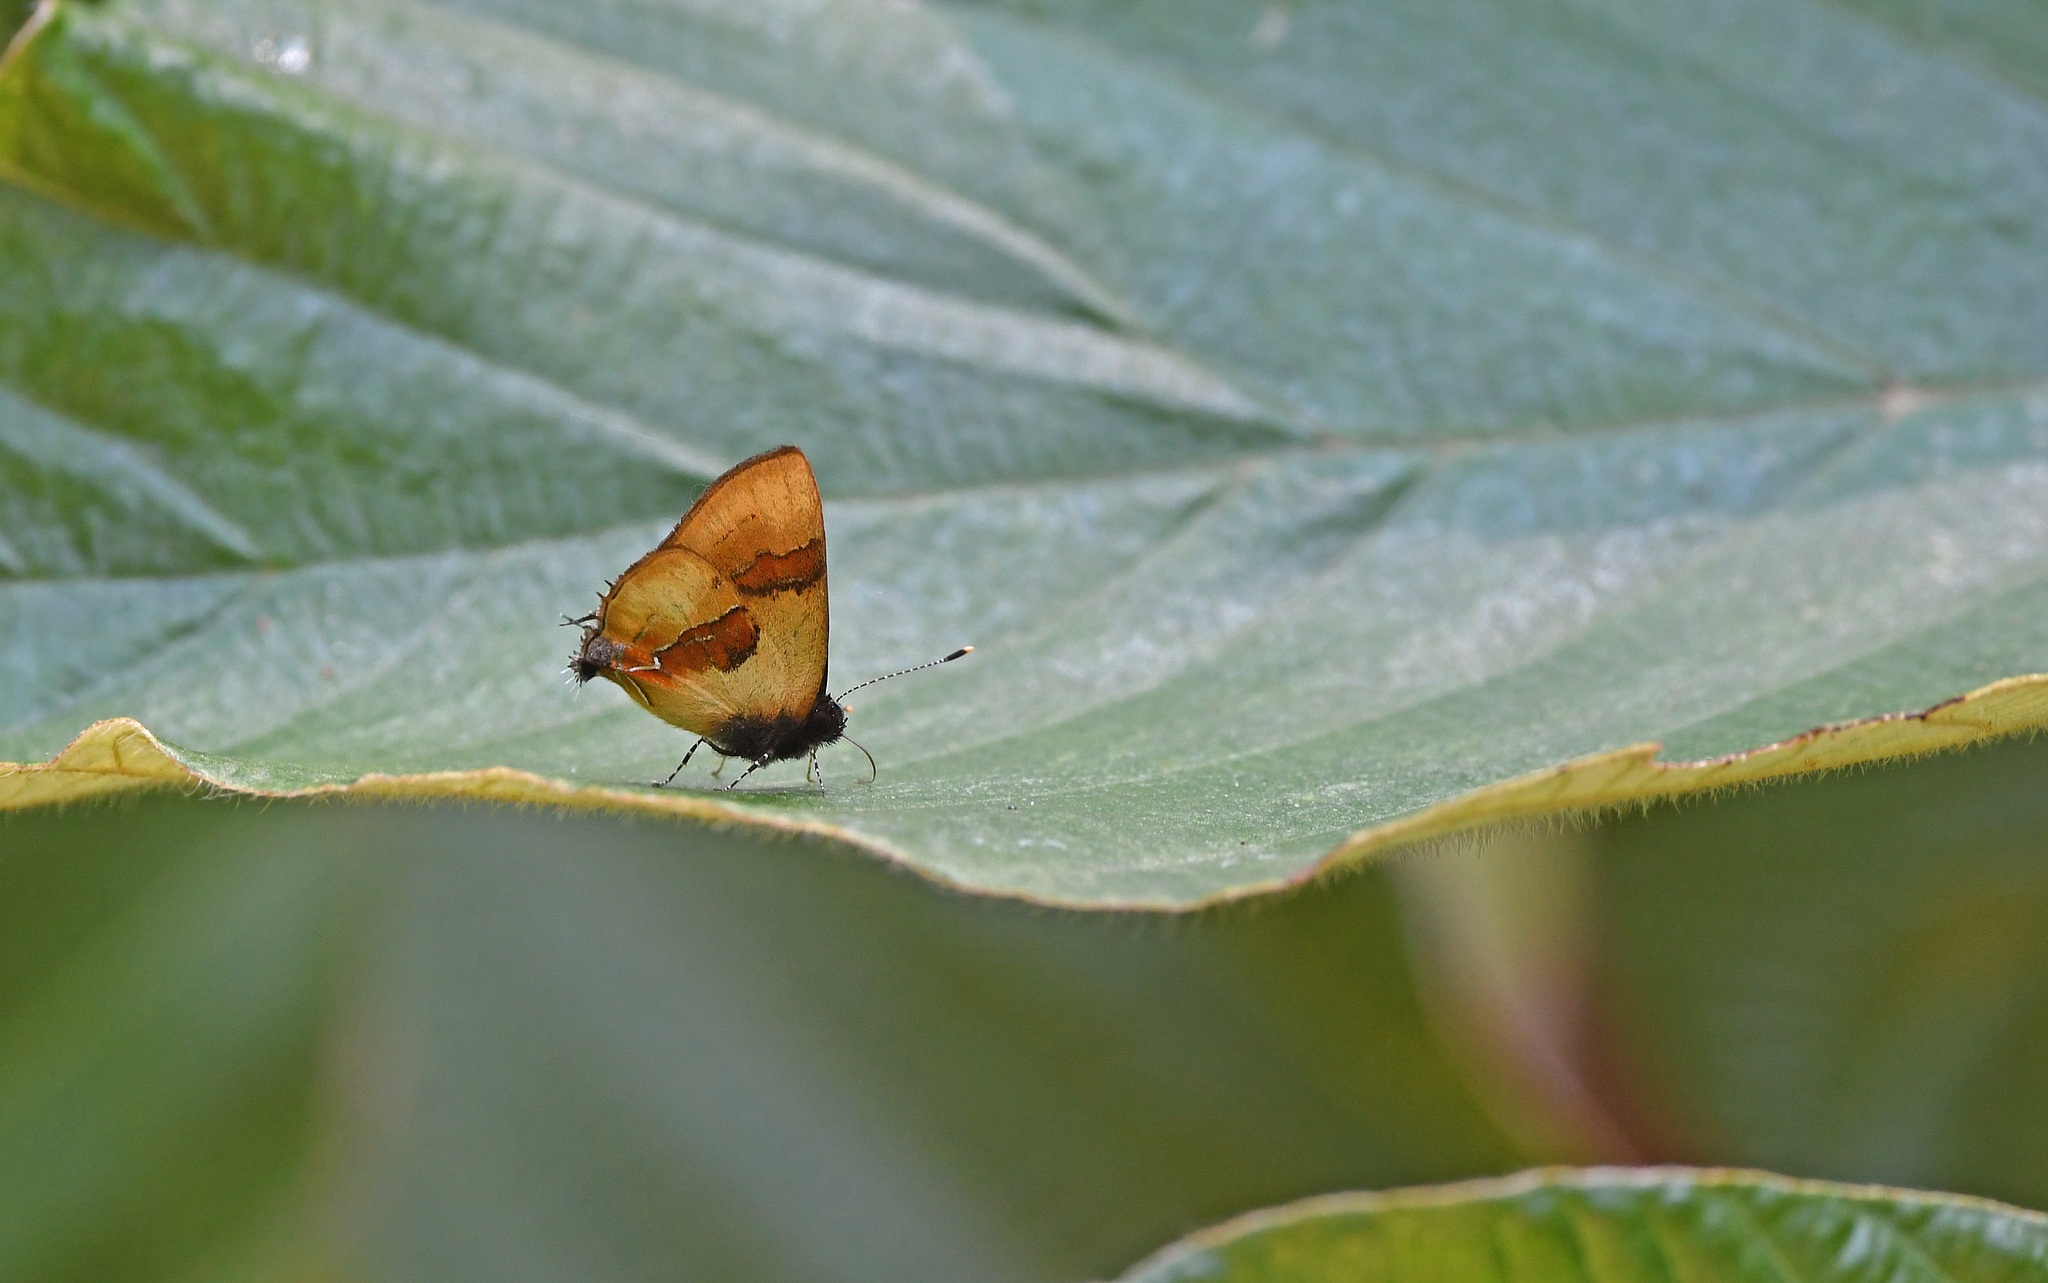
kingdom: Animalia
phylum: Arthropoda
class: Insecta
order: Lepidoptera
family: Lycaenidae
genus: Thecla
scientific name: Thecla buphonia
